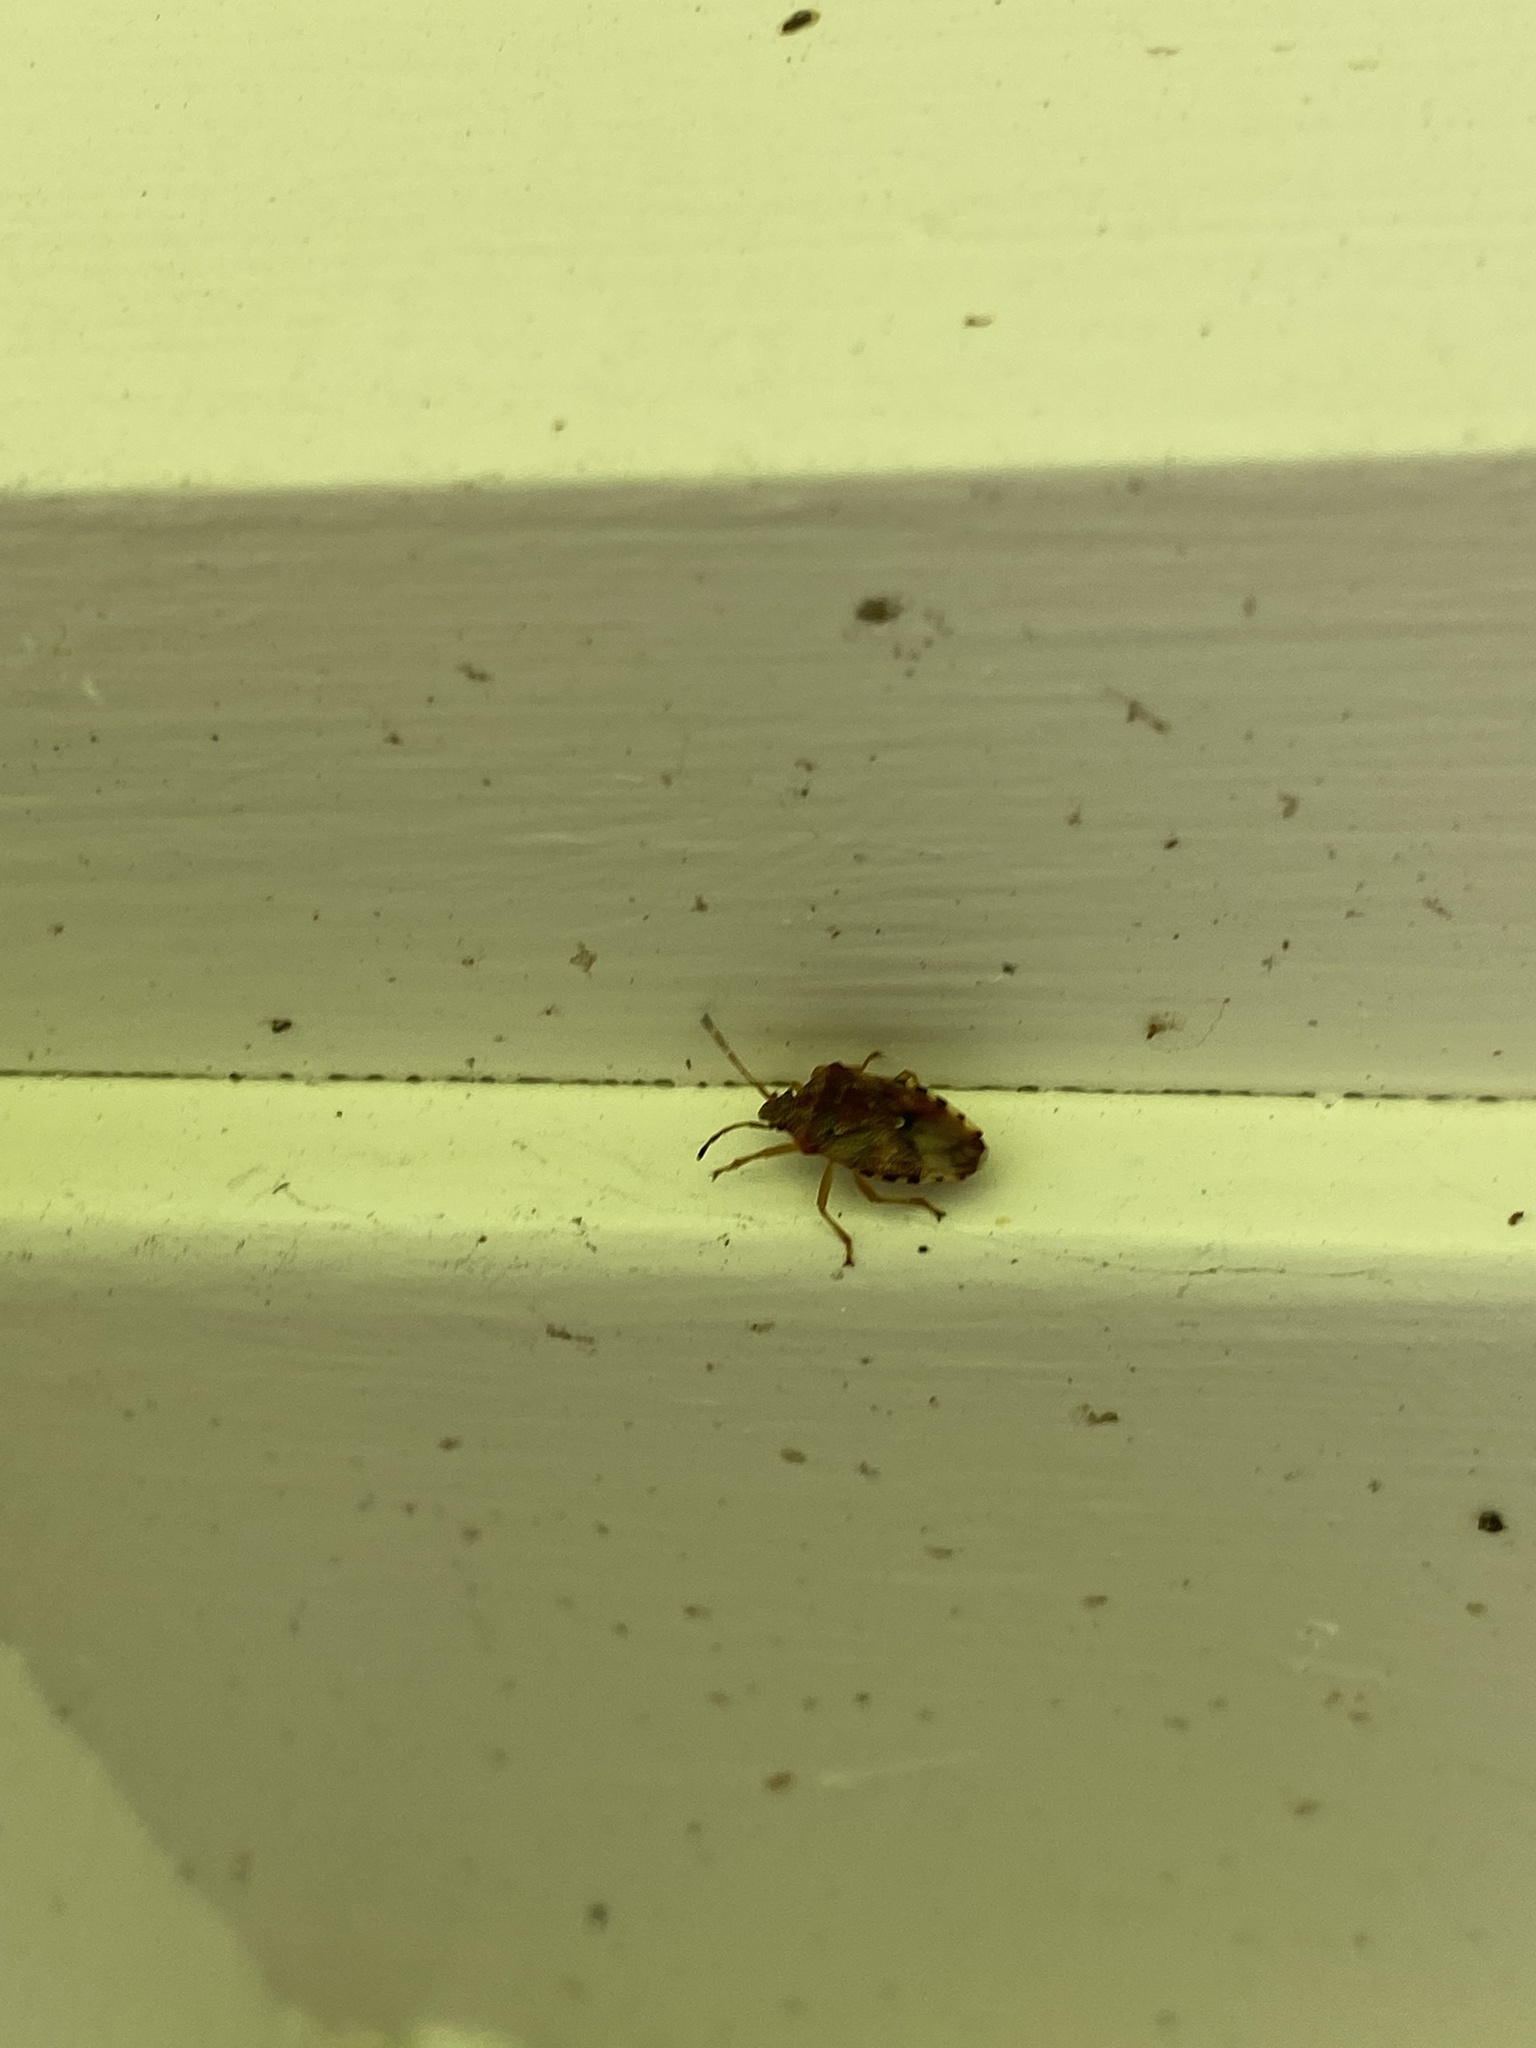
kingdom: Animalia
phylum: Arthropoda
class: Insecta
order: Hemiptera
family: Acanthosomatidae
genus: Elasmucha
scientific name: Elasmucha lateralis
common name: Shield bug
